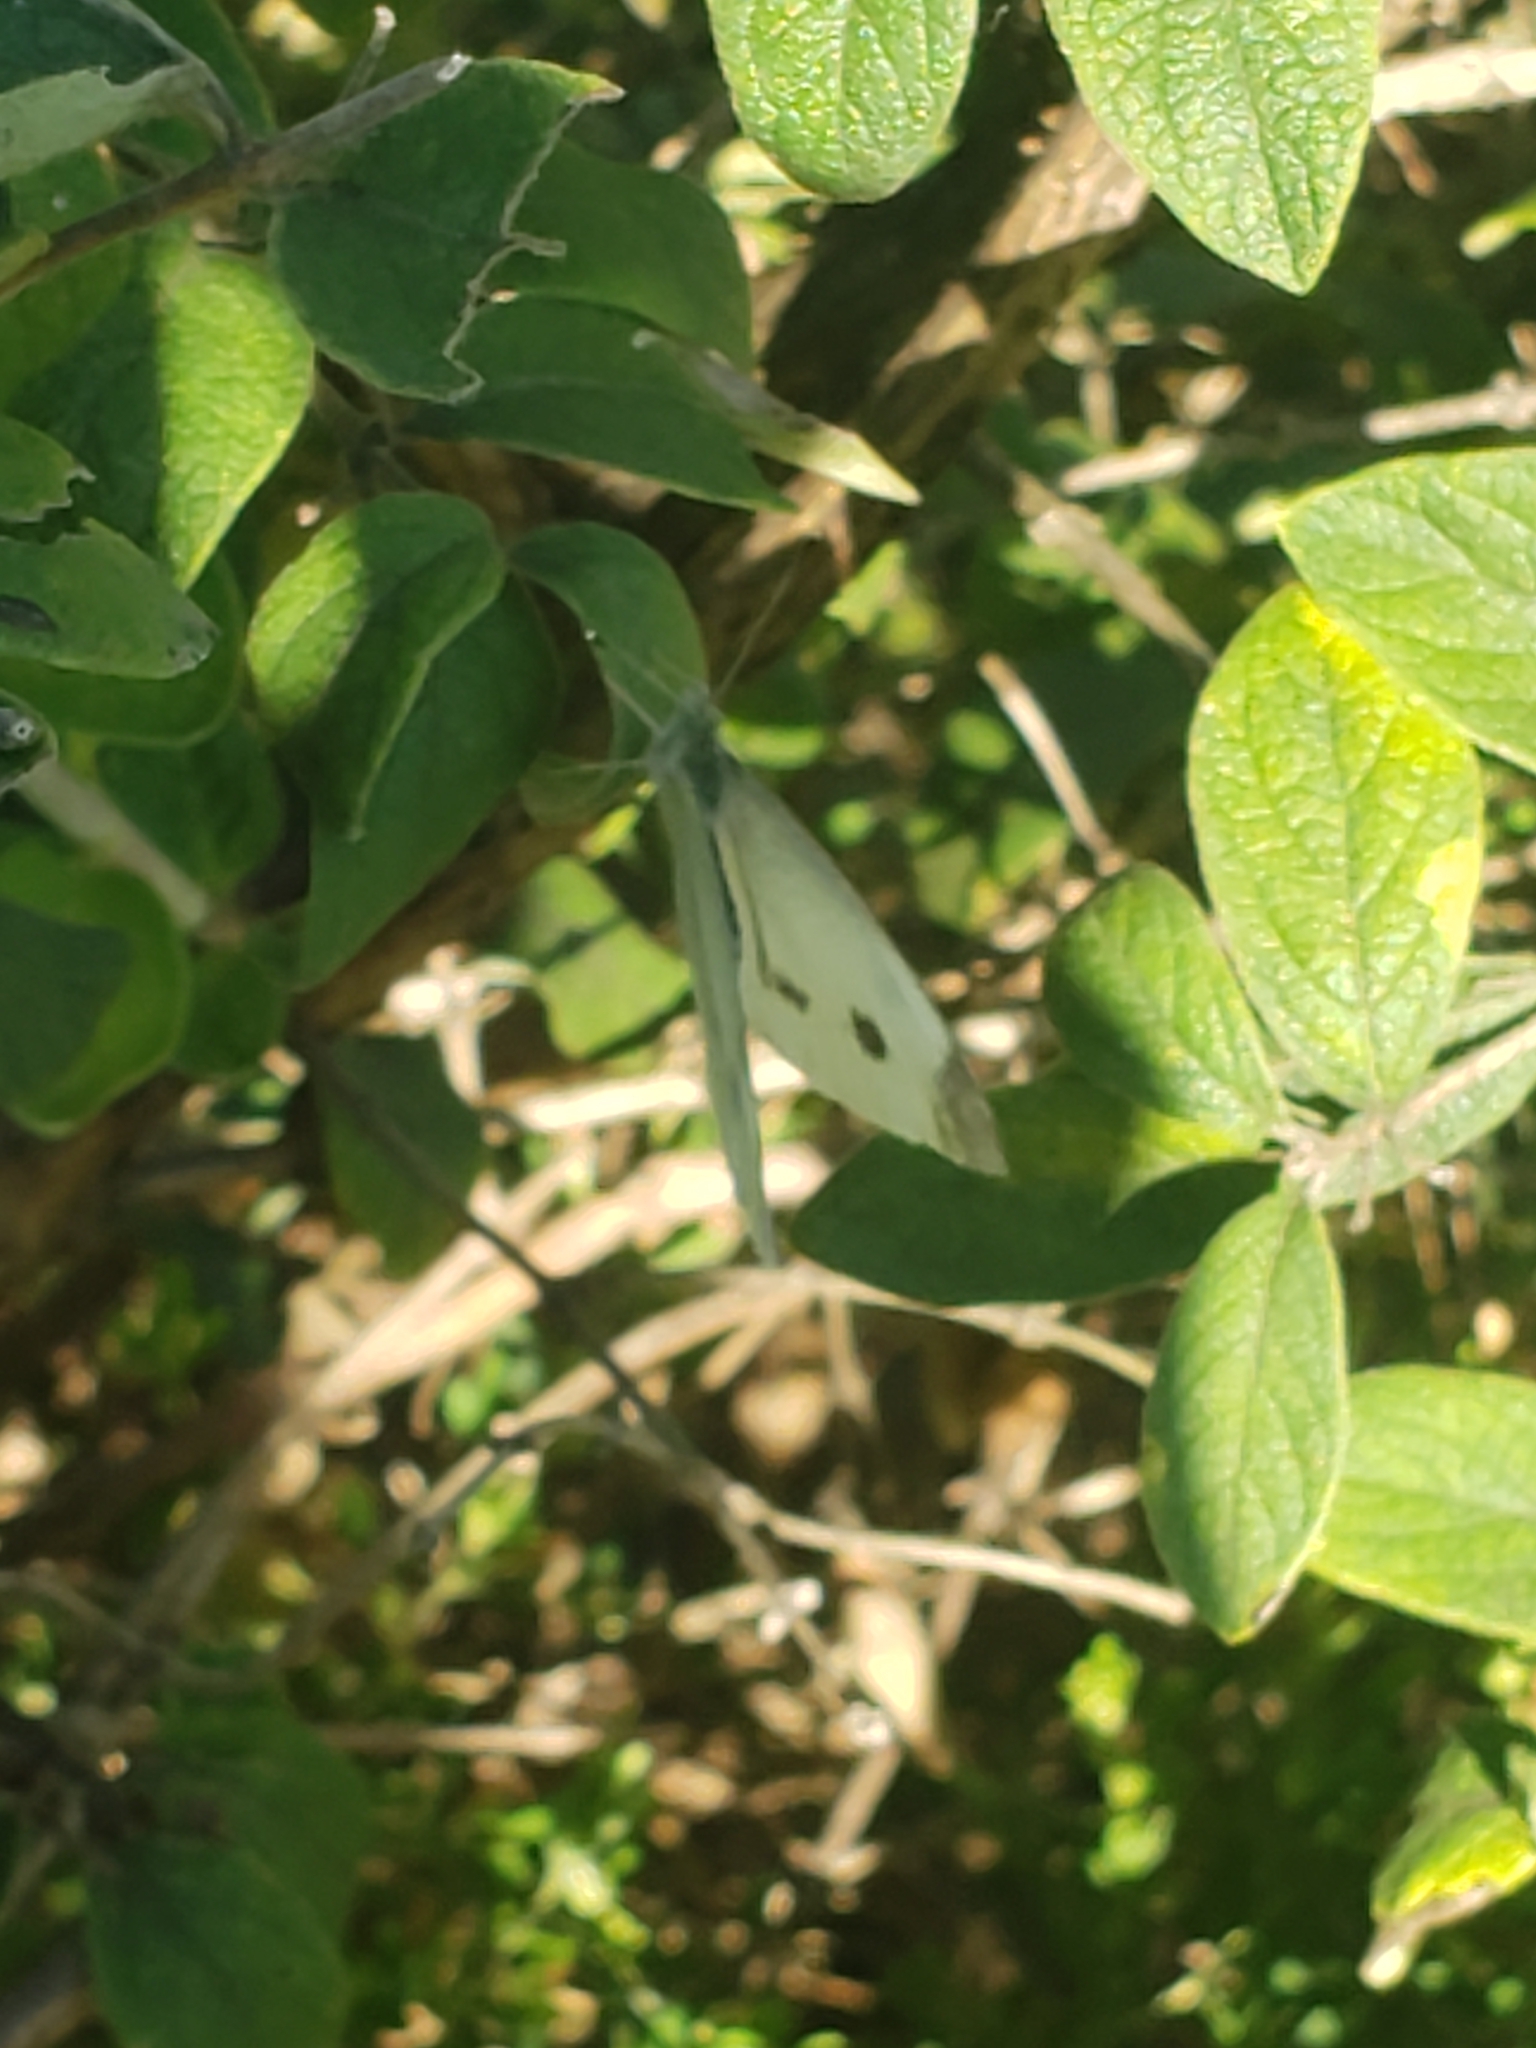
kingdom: Animalia
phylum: Arthropoda
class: Insecta
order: Lepidoptera
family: Pieridae
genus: Pieris
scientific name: Pieris rapae
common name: Small white
